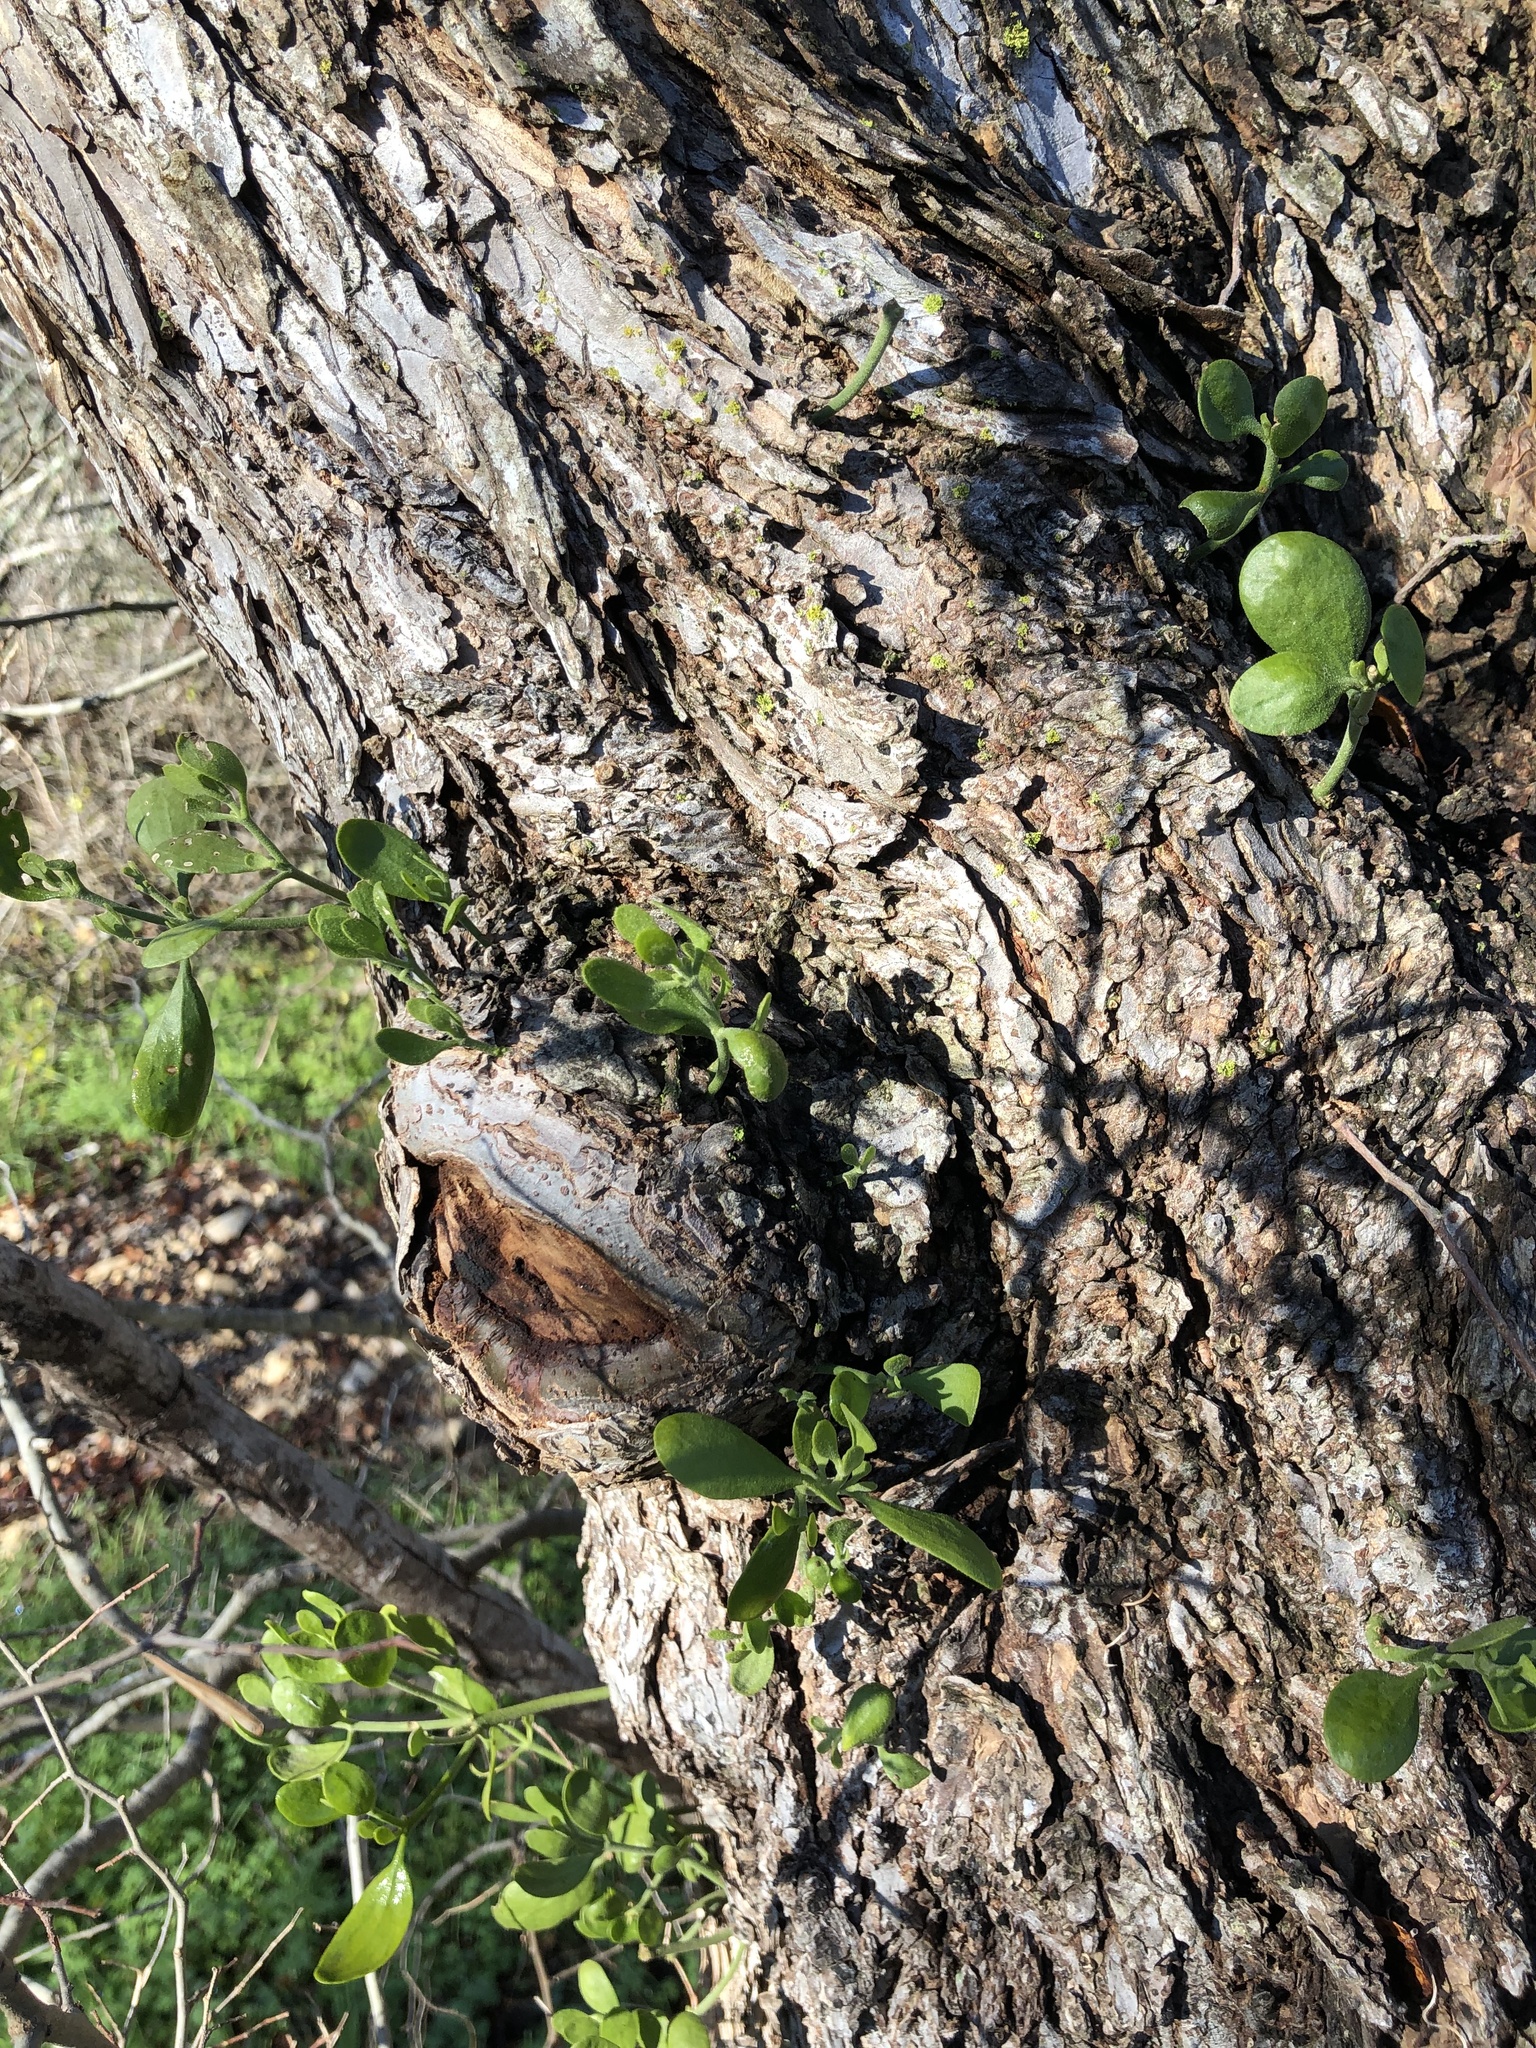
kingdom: Plantae
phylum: Tracheophyta
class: Magnoliopsida
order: Santalales
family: Viscaceae
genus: Phoradendron
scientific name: Phoradendron leucarpum
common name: Pacific mistletoe
